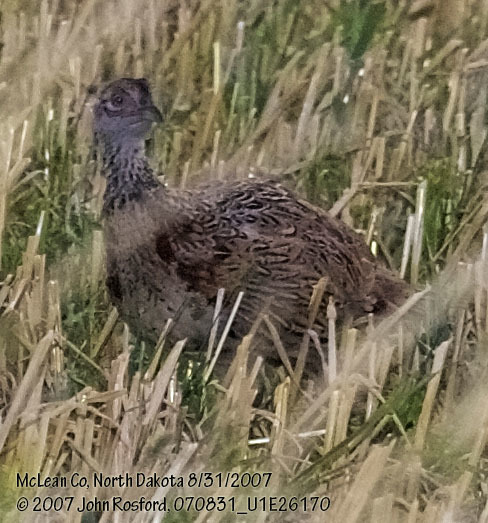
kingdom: Animalia
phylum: Chordata
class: Aves
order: Galliformes
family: Phasianidae
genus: Phasianus
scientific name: Phasianus colchicus
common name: Common pheasant
